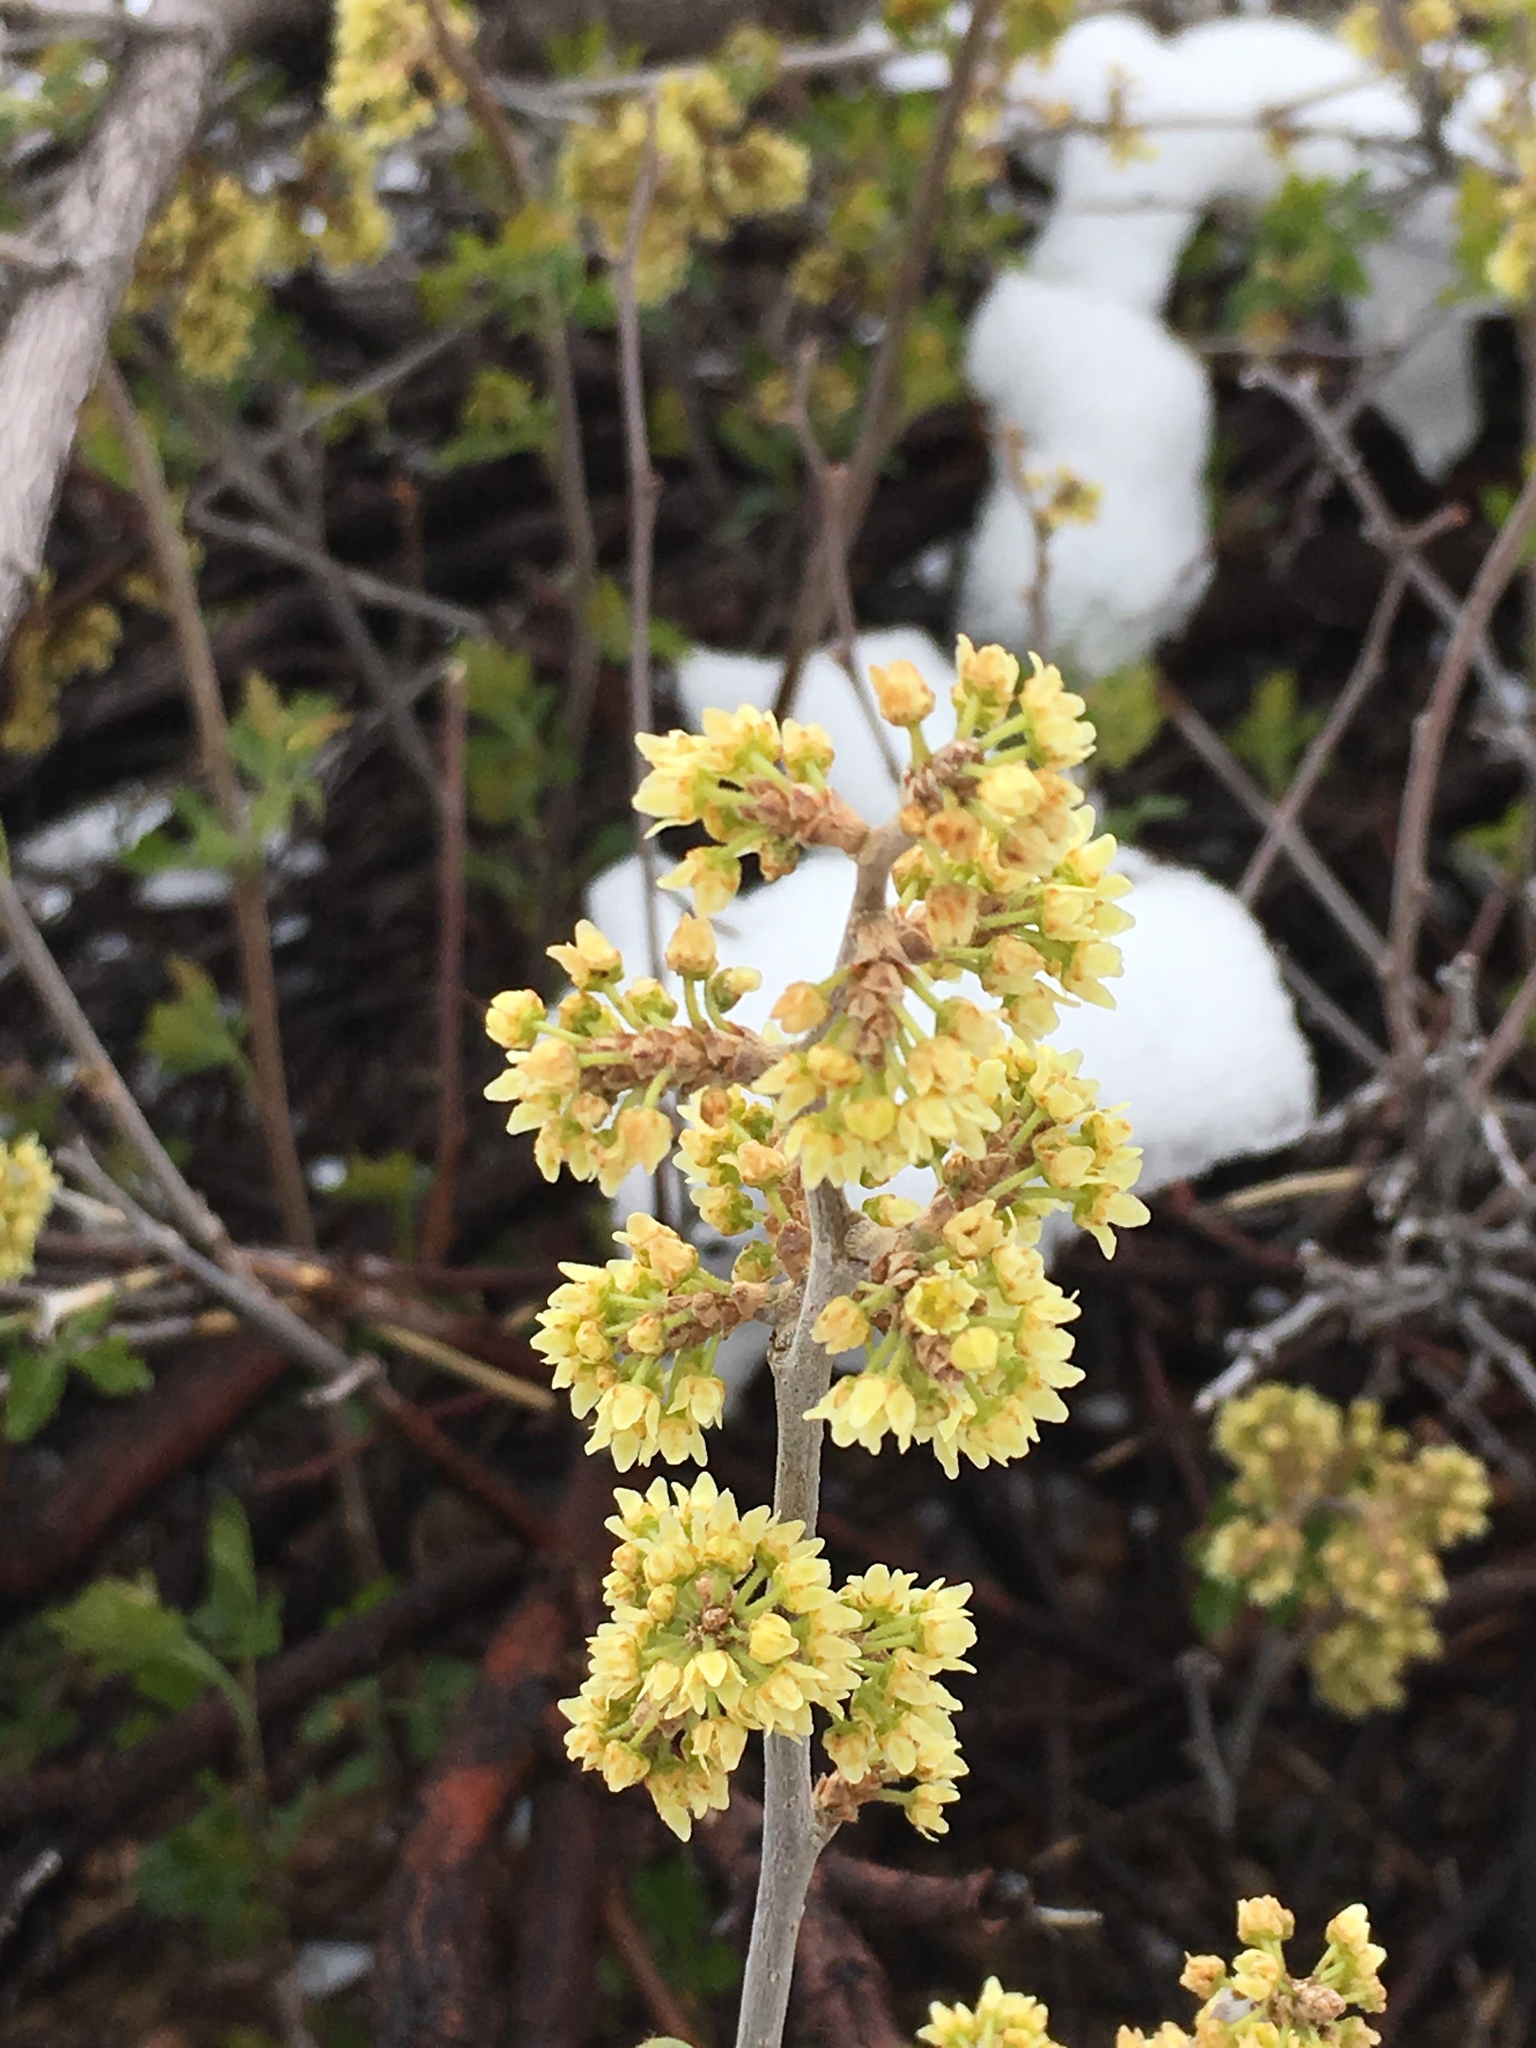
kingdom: Plantae
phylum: Tracheophyta
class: Magnoliopsida
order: Sapindales
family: Anacardiaceae
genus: Rhus
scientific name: Rhus aromatica
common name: Aromatic sumac
